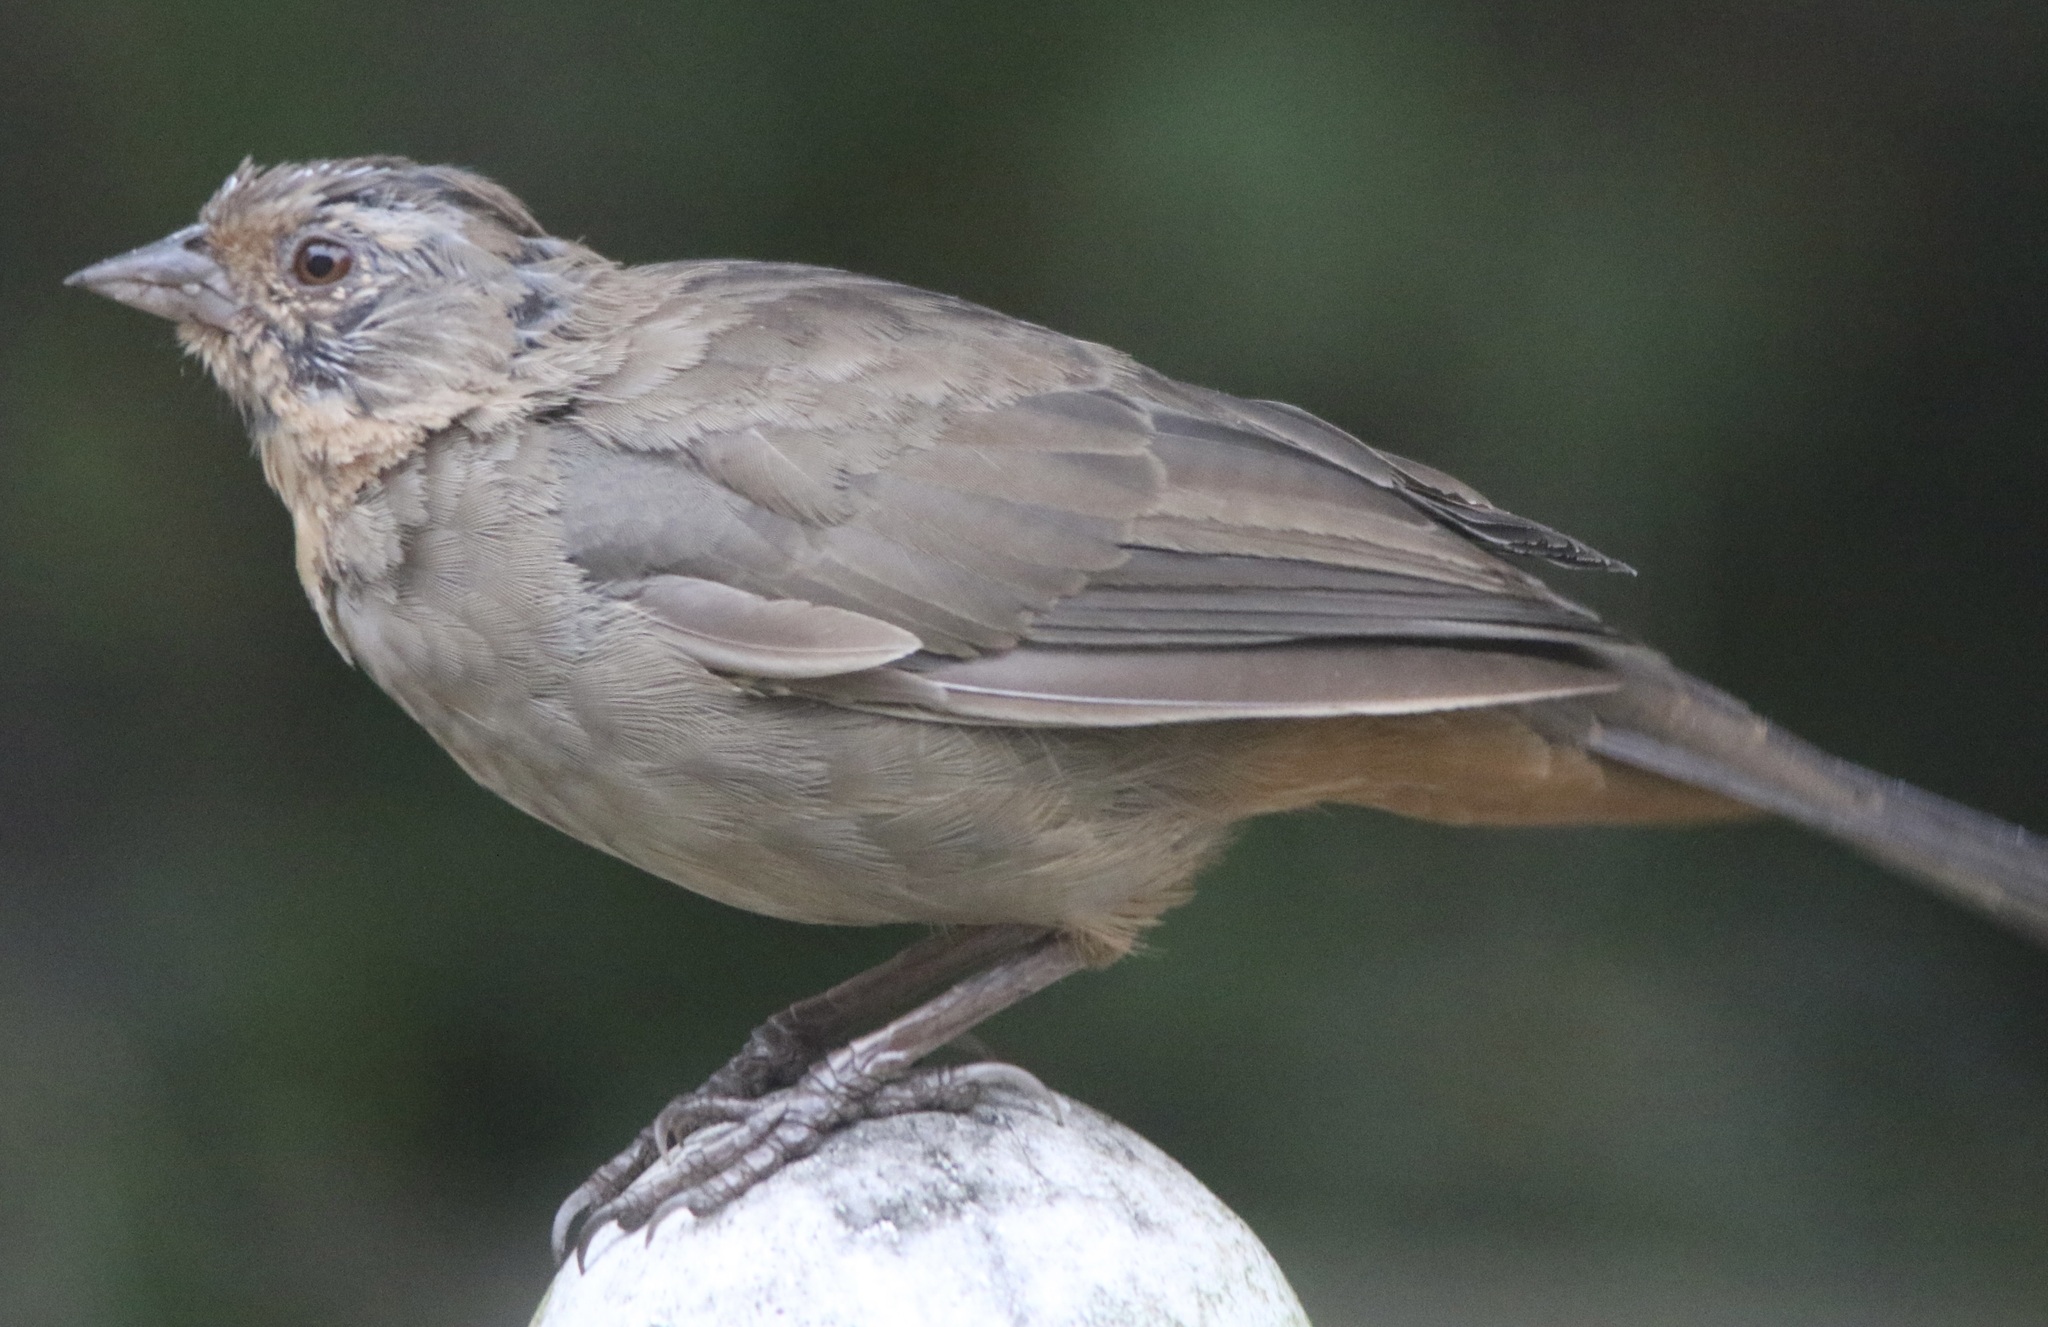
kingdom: Animalia
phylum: Chordata
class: Aves
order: Passeriformes
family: Passerellidae
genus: Melozone
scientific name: Melozone crissalis
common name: California towhee
